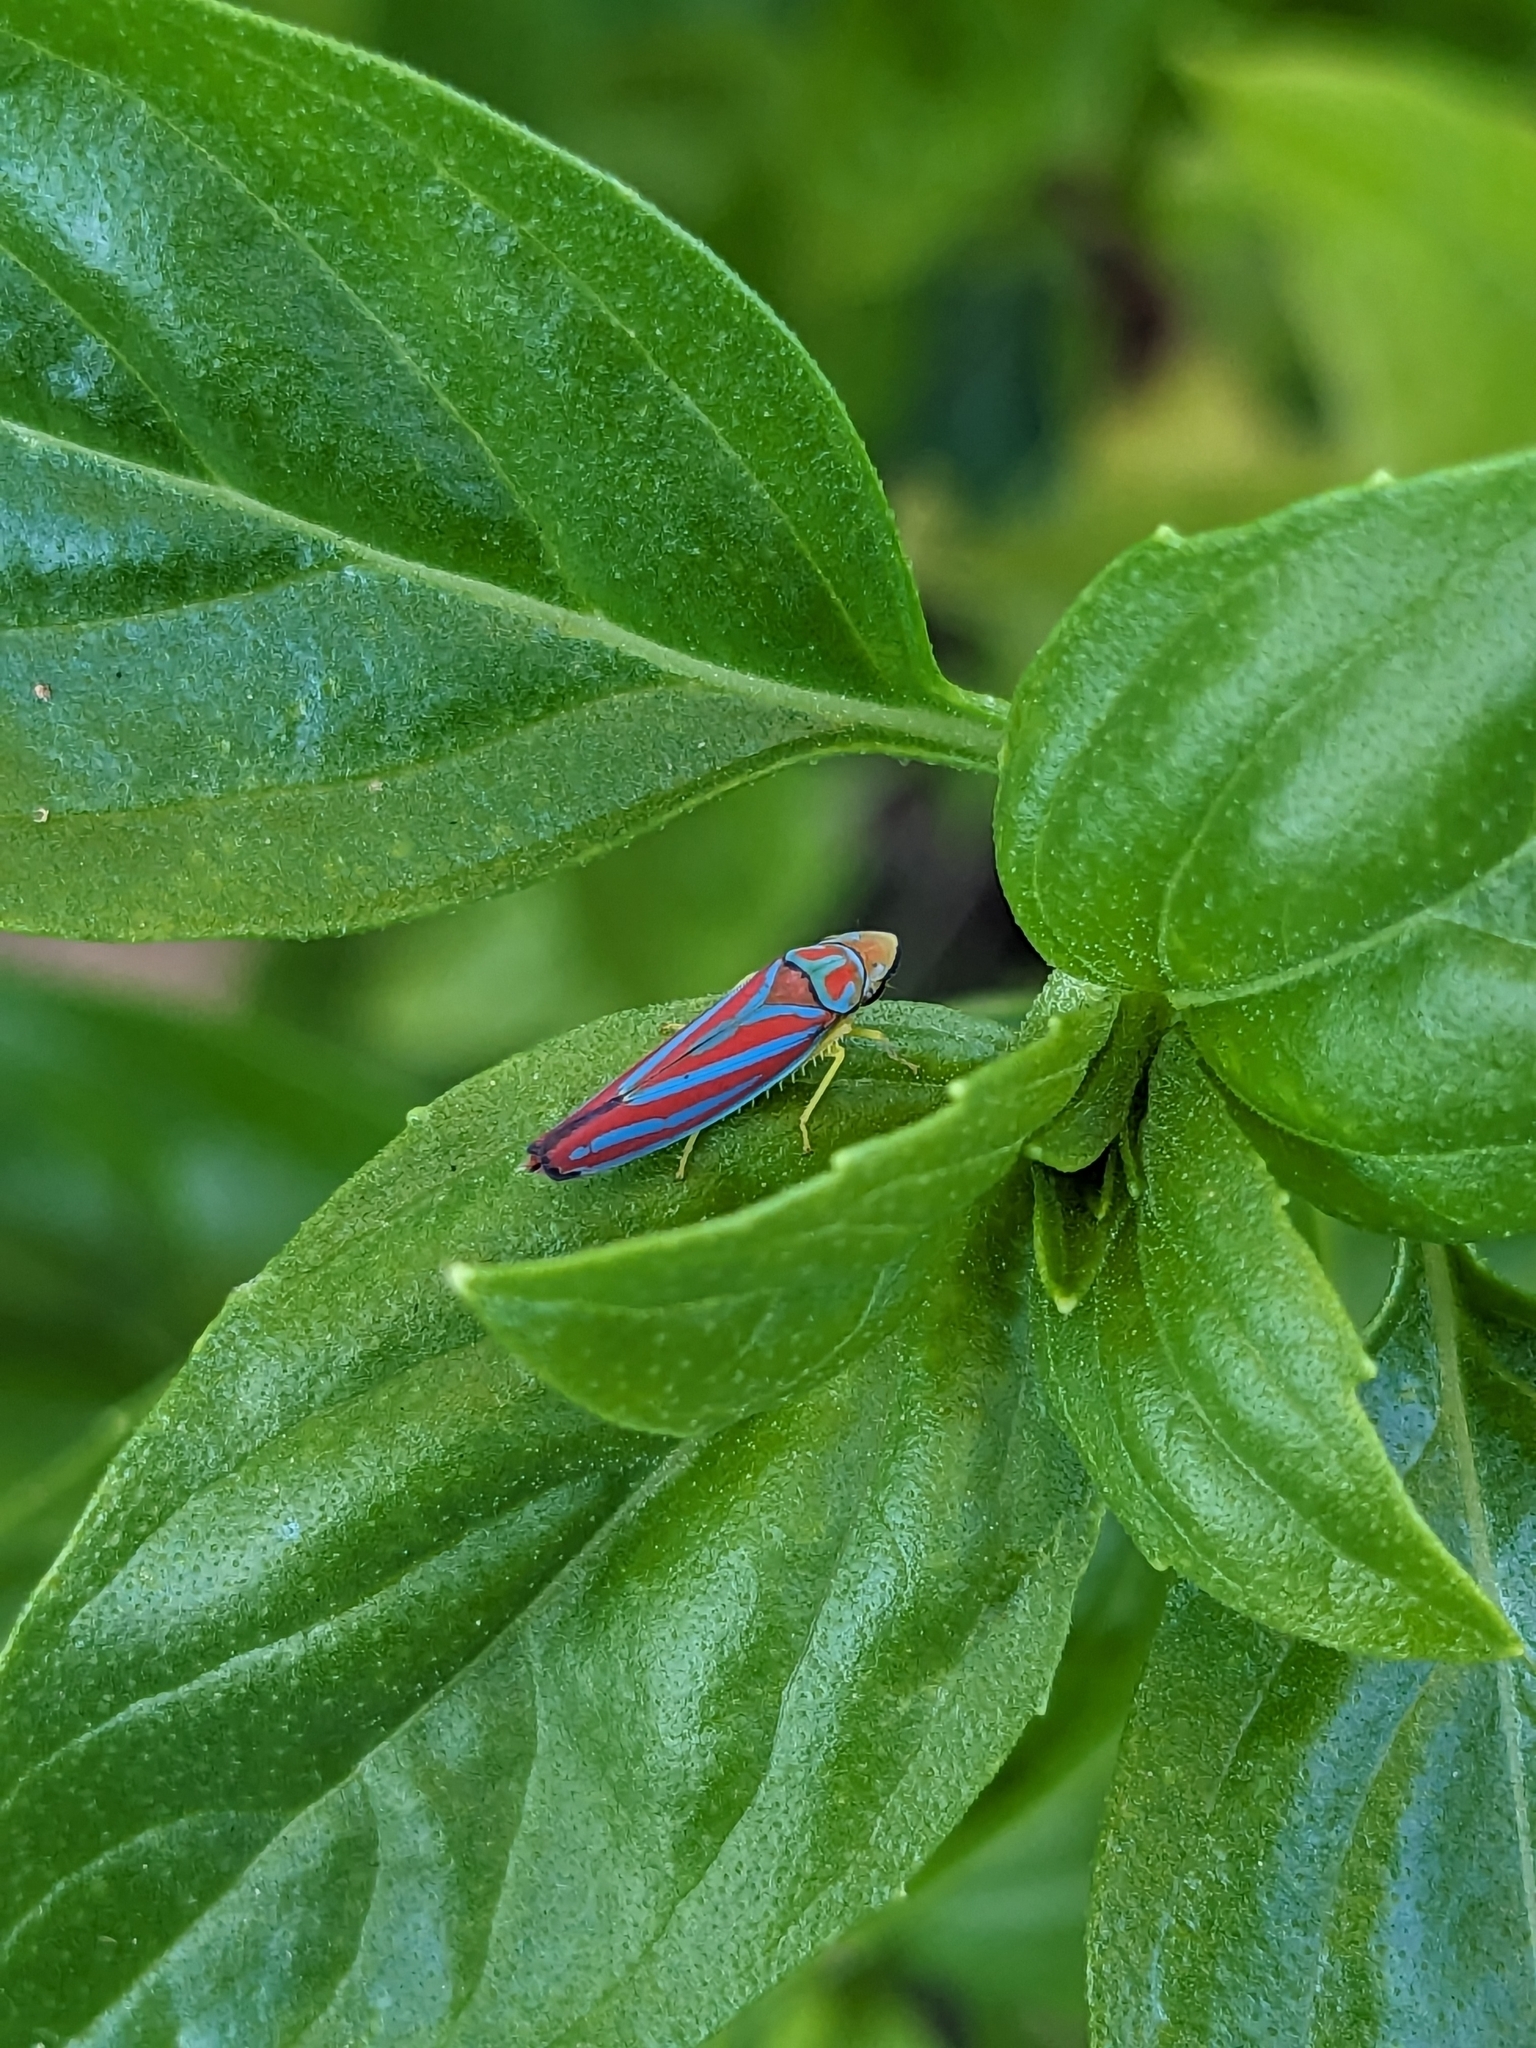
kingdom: Animalia
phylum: Arthropoda
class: Insecta
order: Hemiptera
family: Cicadellidae
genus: Graphocephala
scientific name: Graphocephala coccinea
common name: Candy-striped leafhopper
